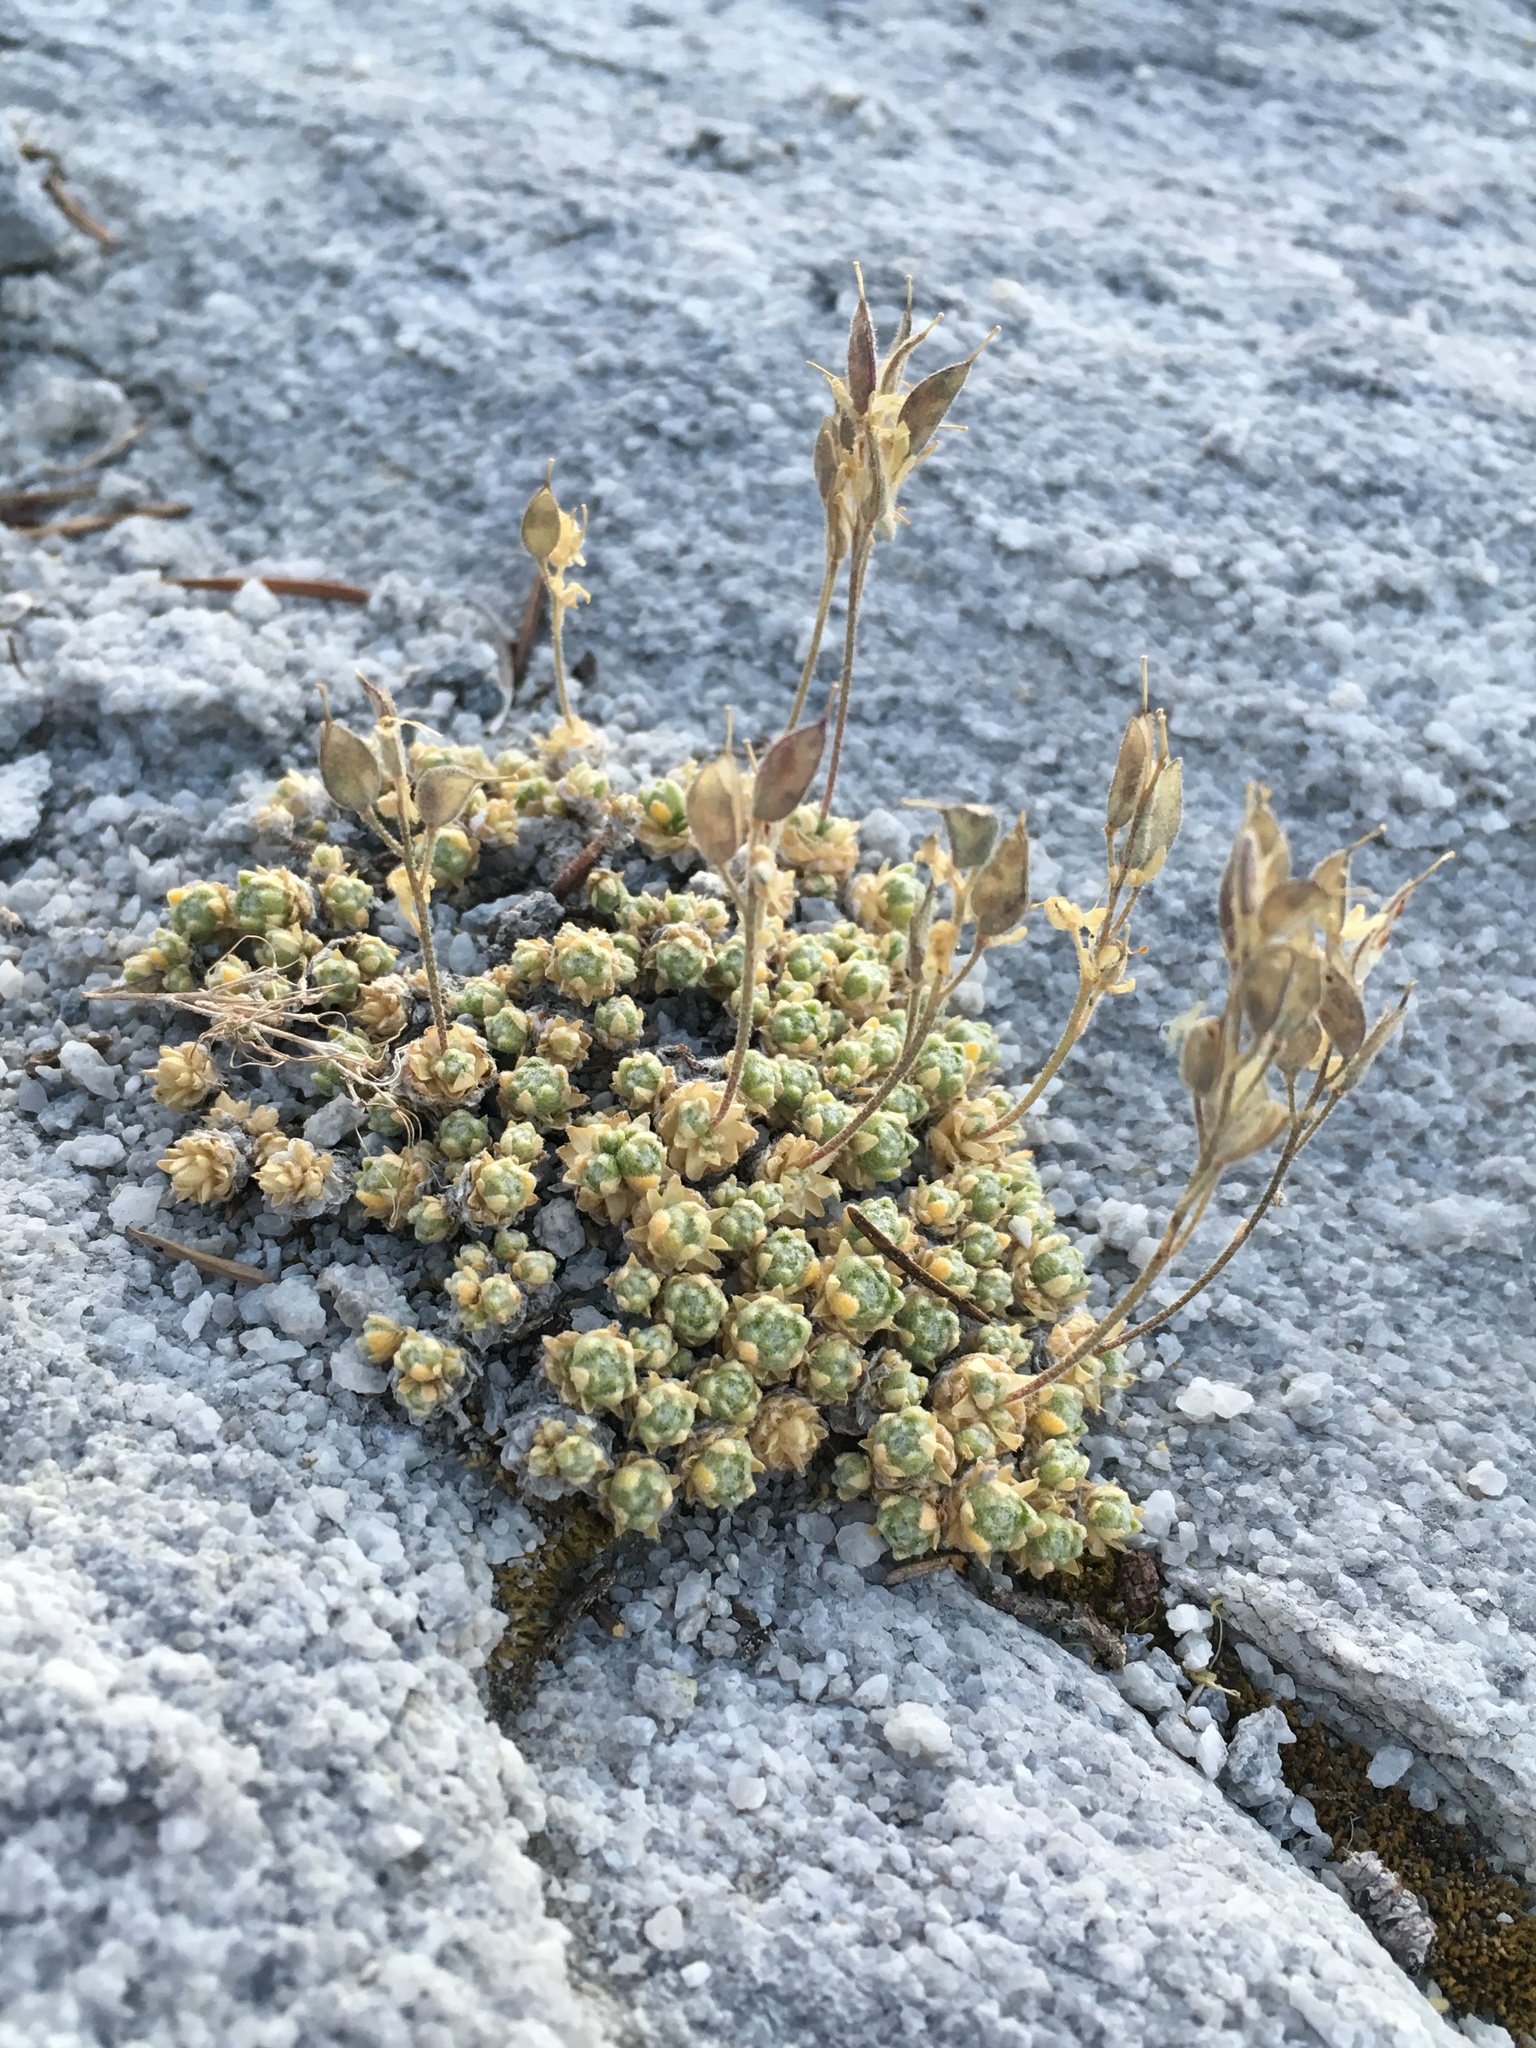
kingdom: Plantae
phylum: Tracheophyta
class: Magnoliopsida
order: Brassicales
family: Brassicaceae
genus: Draba
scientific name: Draba pterosperma
